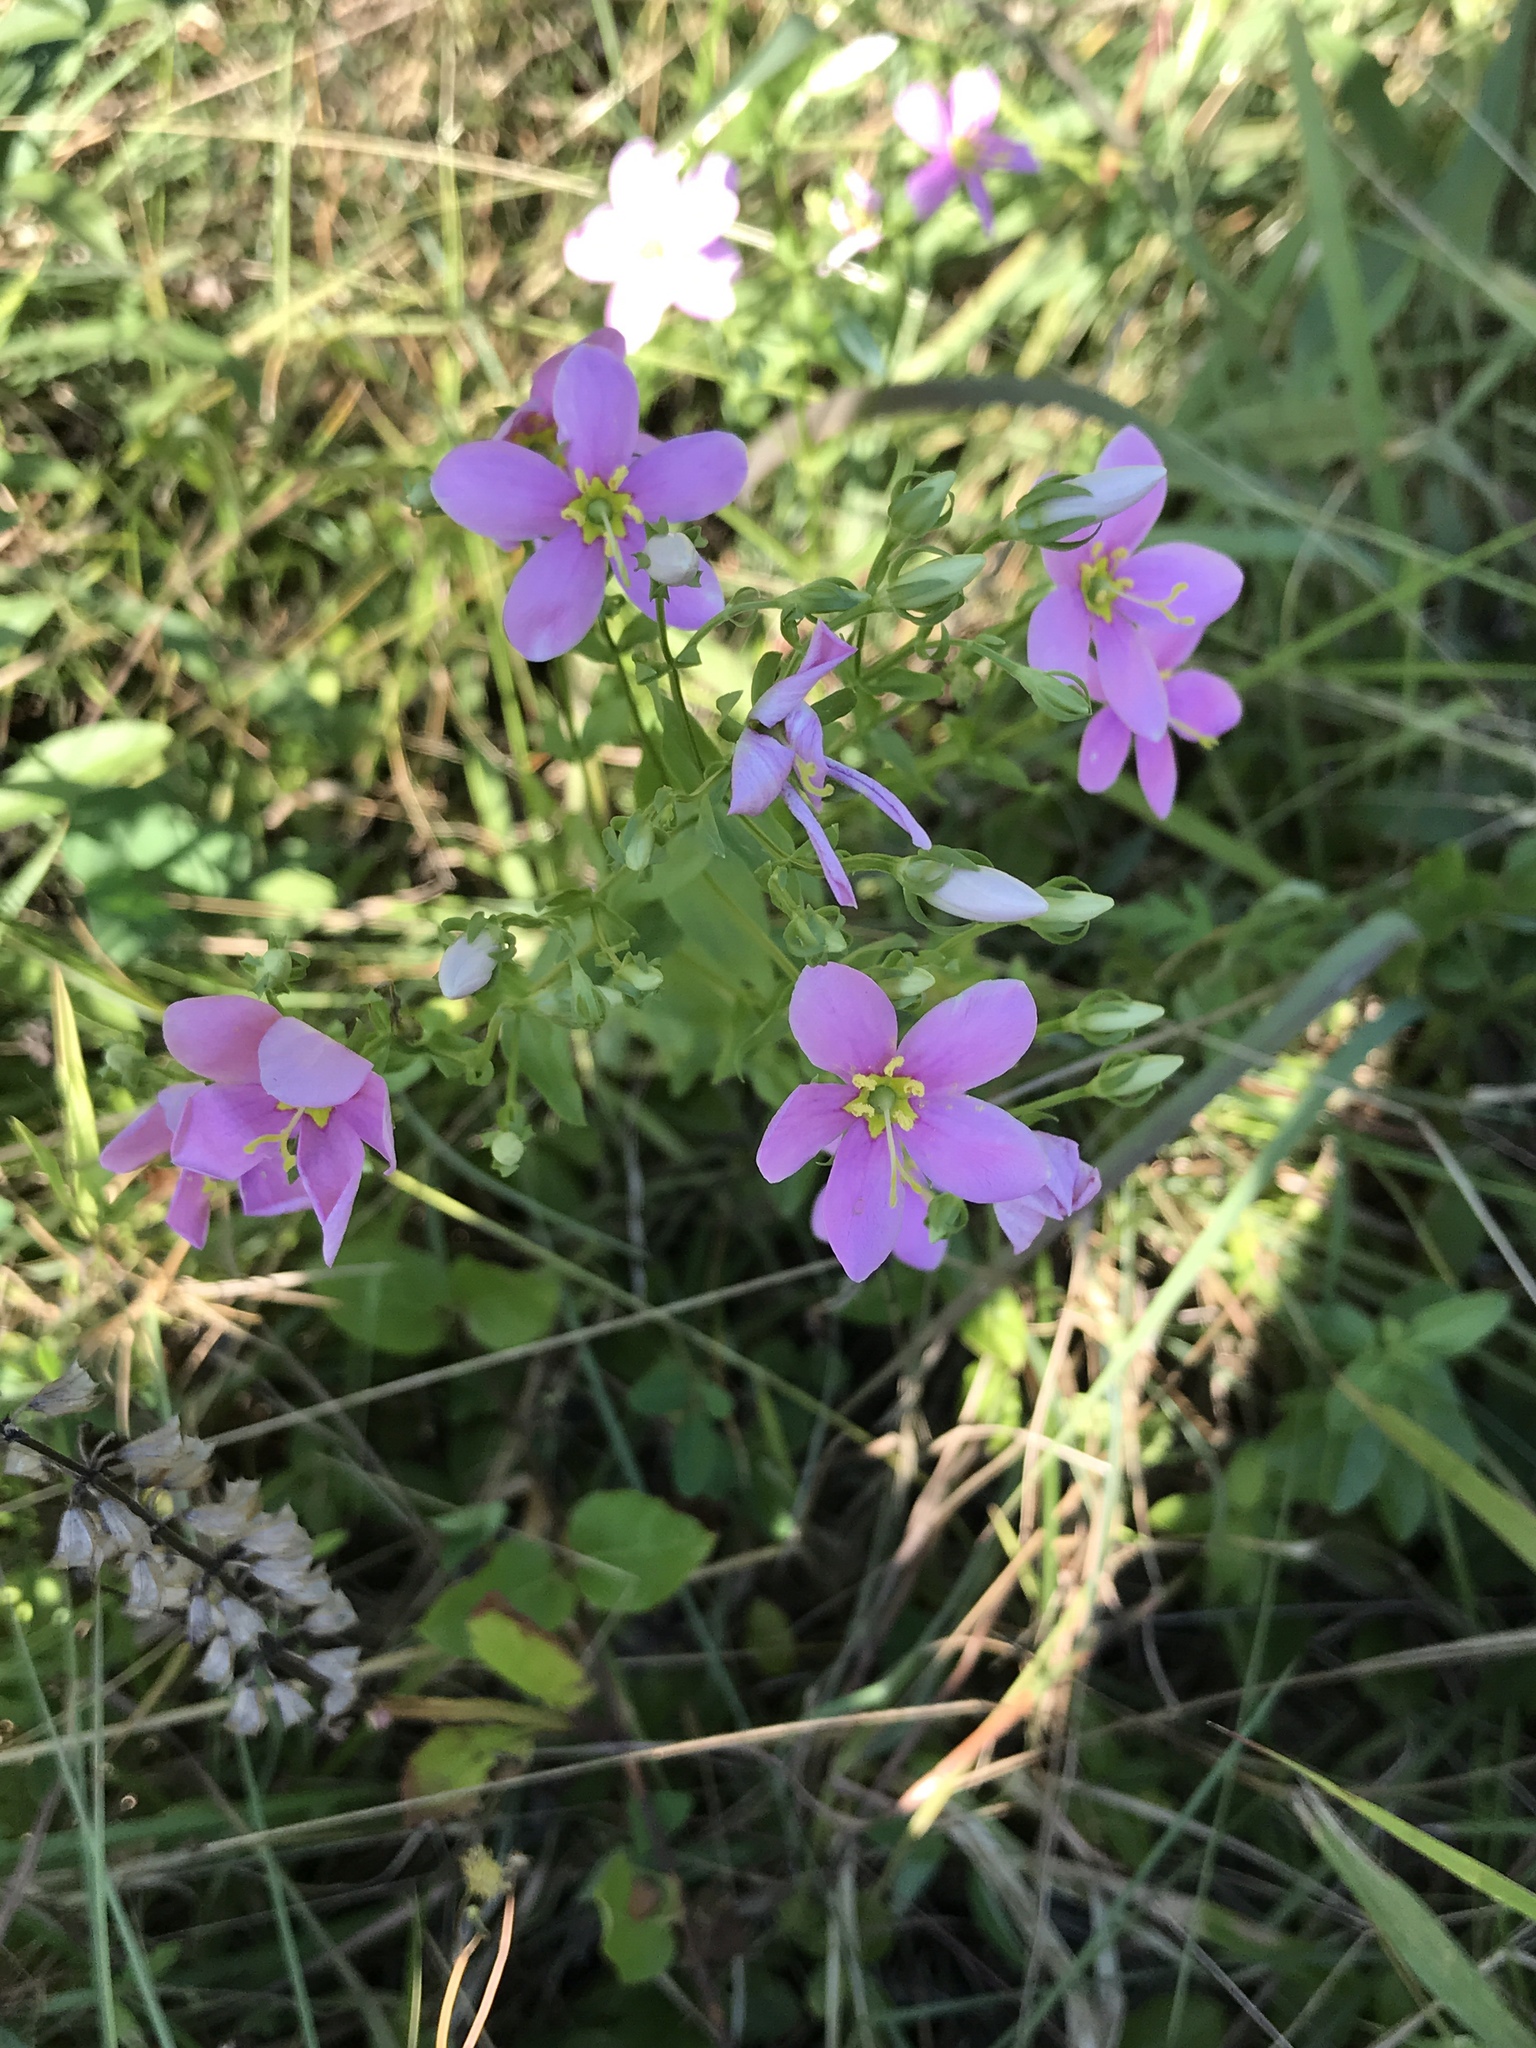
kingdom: Plantae
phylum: Tracheophyta
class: Magnoliopsida
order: Gentianales
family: Gentianaceae
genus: Sabatia
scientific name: Sabatia angularis
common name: Rose-pink
